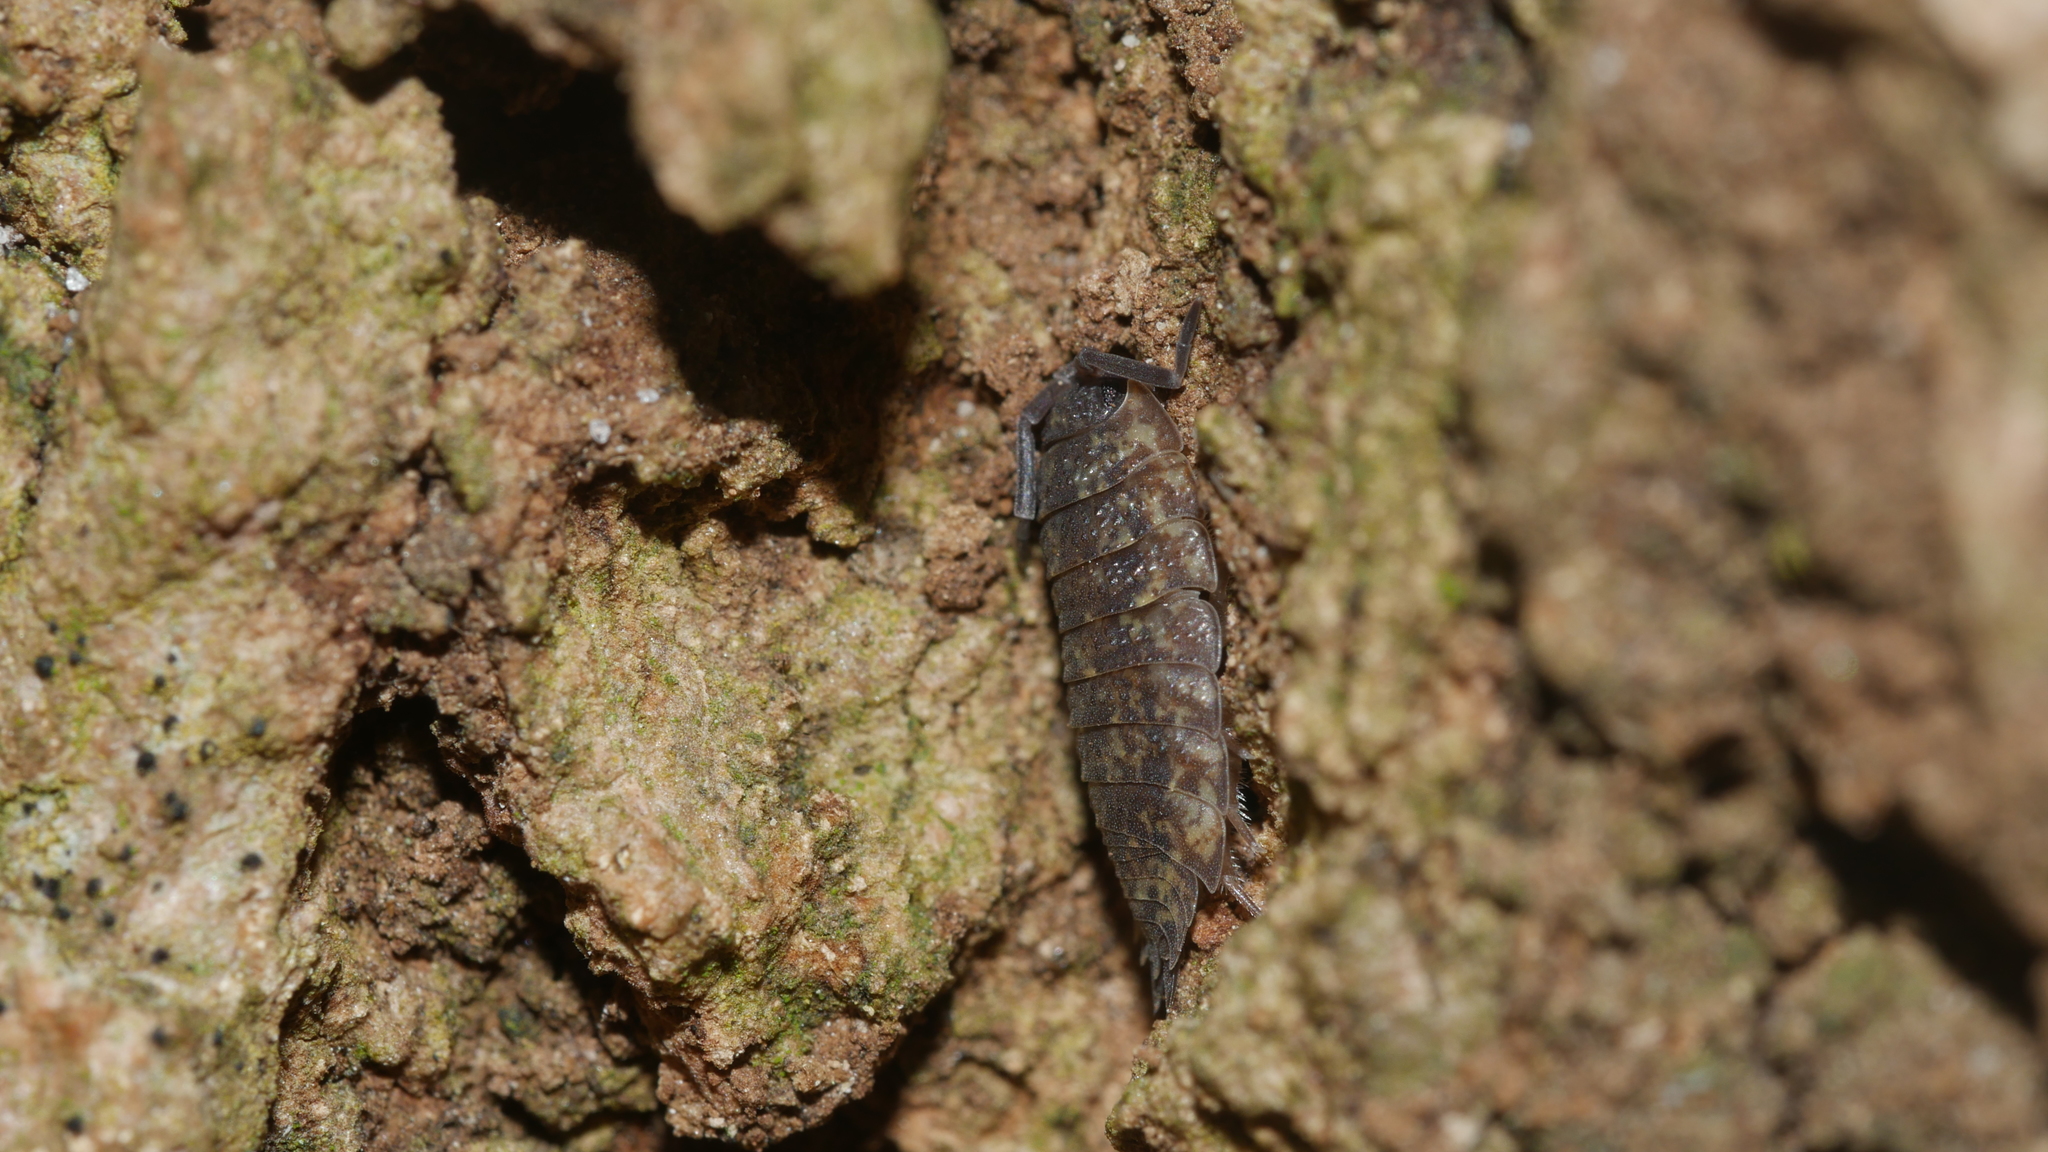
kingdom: Animalia
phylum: Arthropoda
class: Malacostraca
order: Isopoda
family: Porcellionidae
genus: Porcellio
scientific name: Porcellio scaber
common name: Common rough woodlouse
